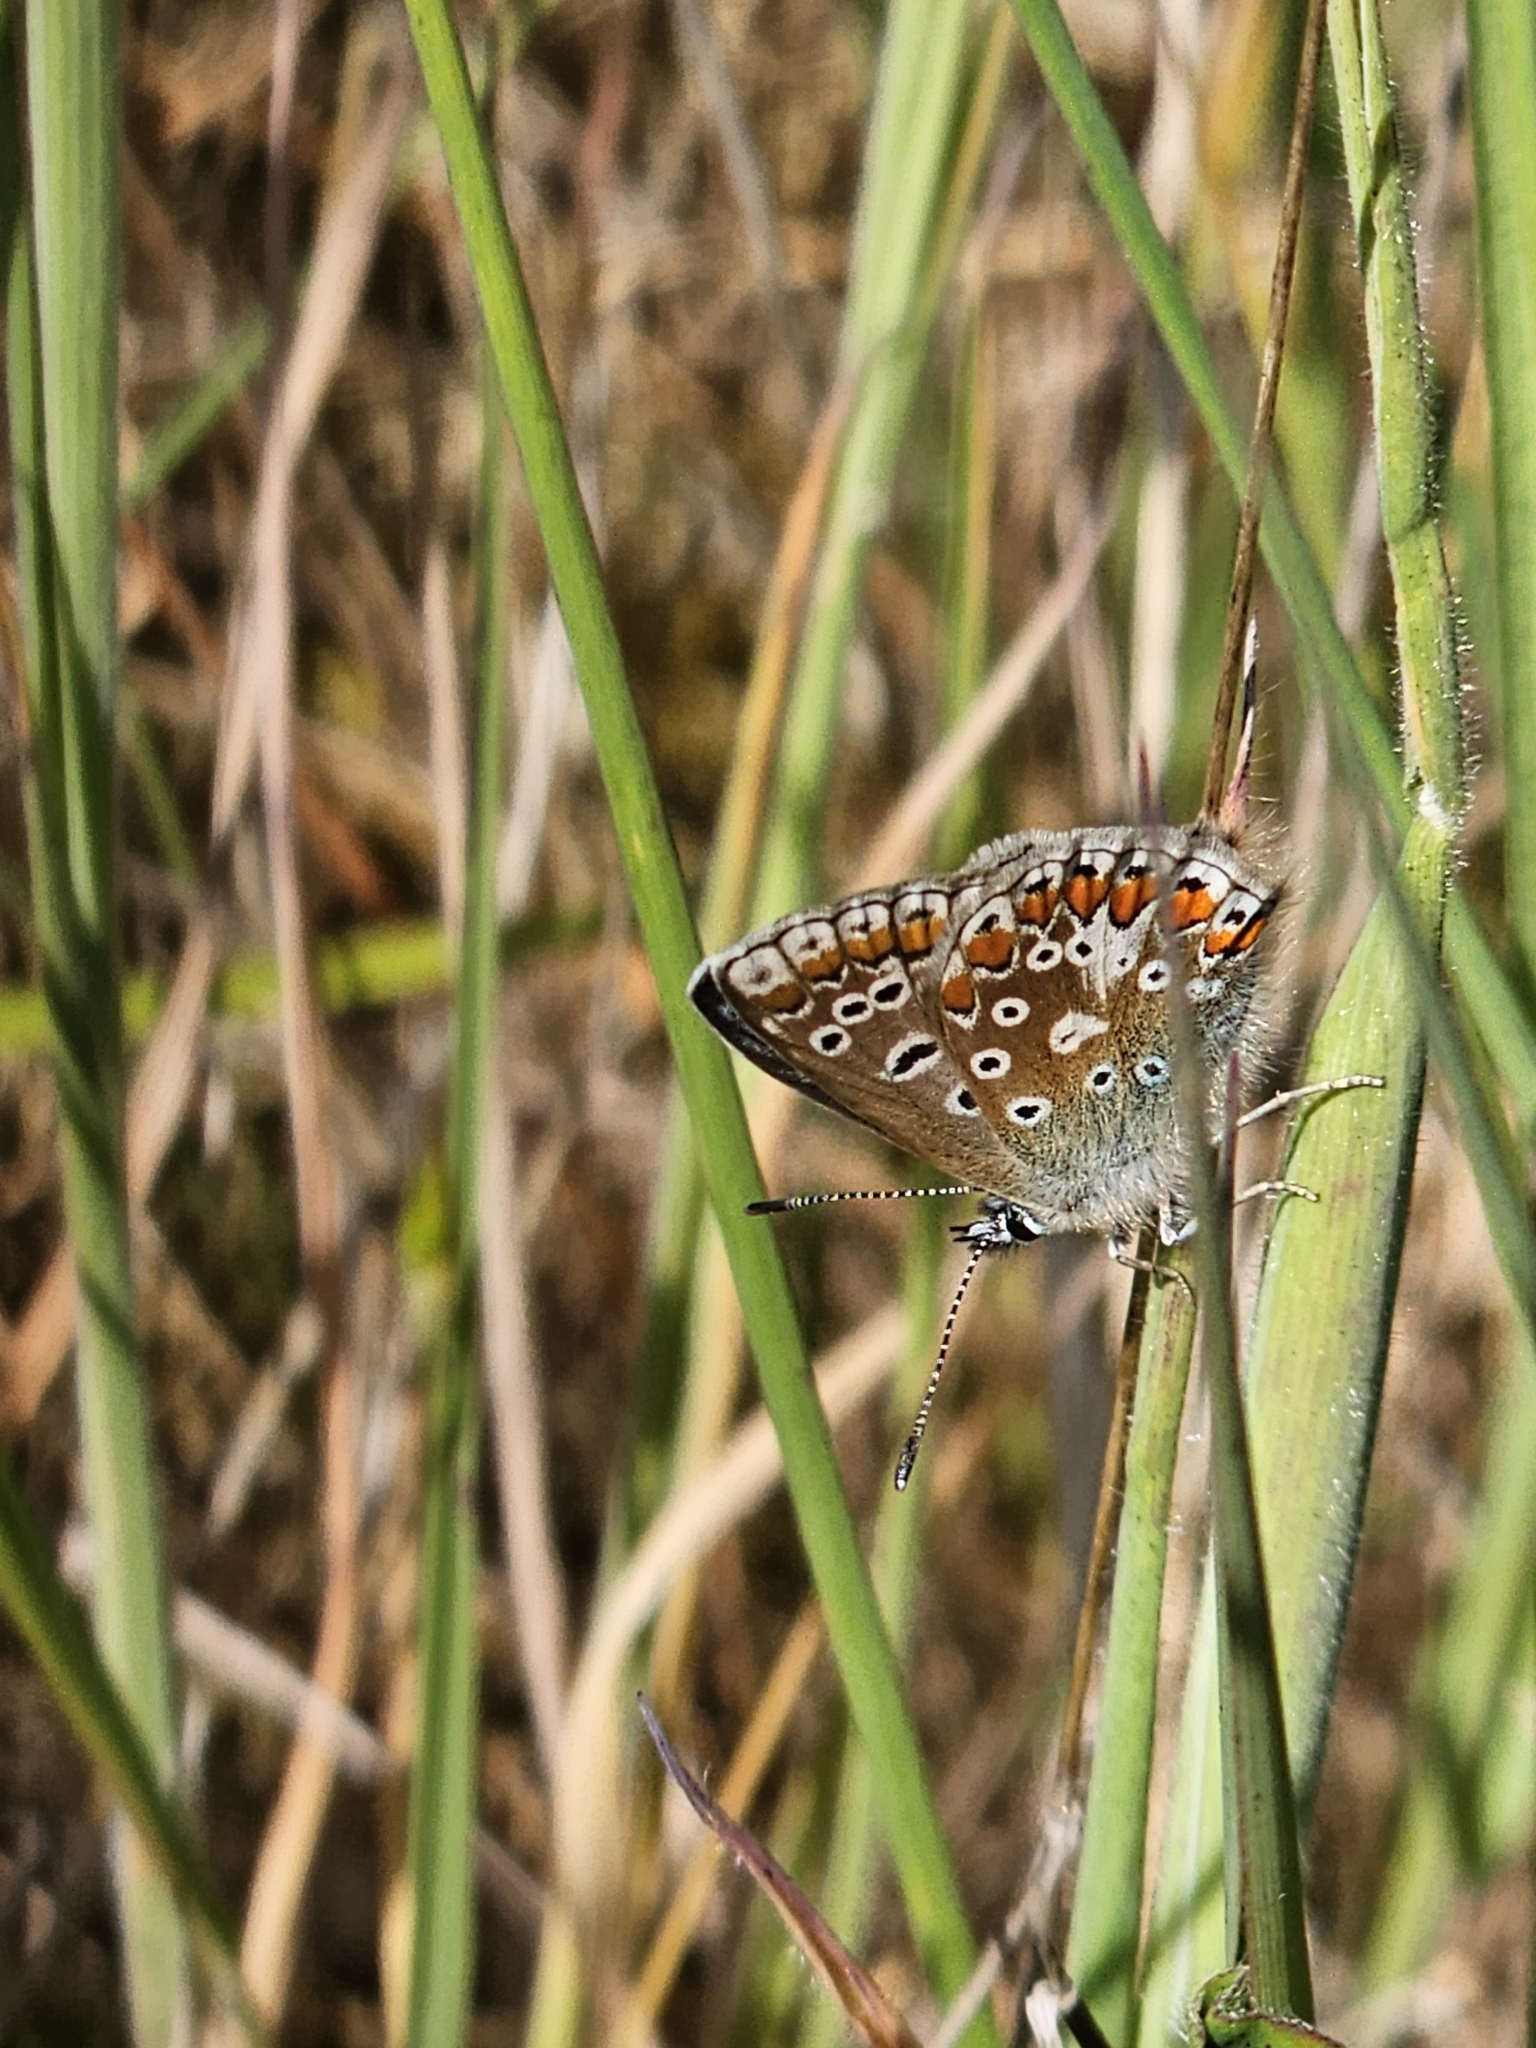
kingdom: Animalia
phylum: Arthropoda
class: Insecta
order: Lepidoptera
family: Lycaenidae
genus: Polyommatus
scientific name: Polyommatus icarus
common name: Common blue
